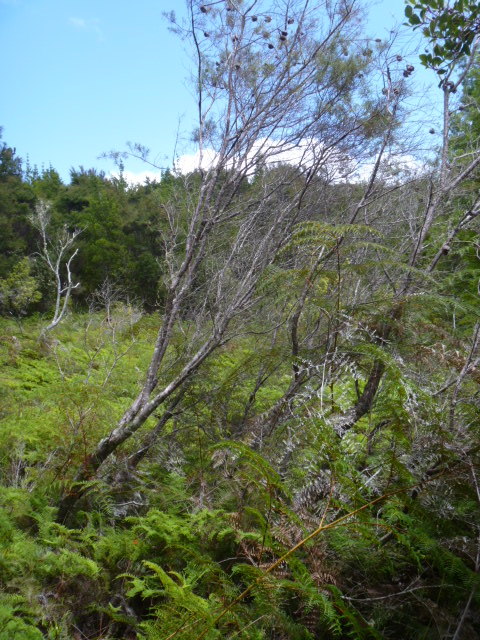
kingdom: Plantae
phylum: Tracheophyta
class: Magnoliopsida
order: Proteales
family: Proteaceae
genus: Hakea
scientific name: Hakea sericea
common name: Needle bush
